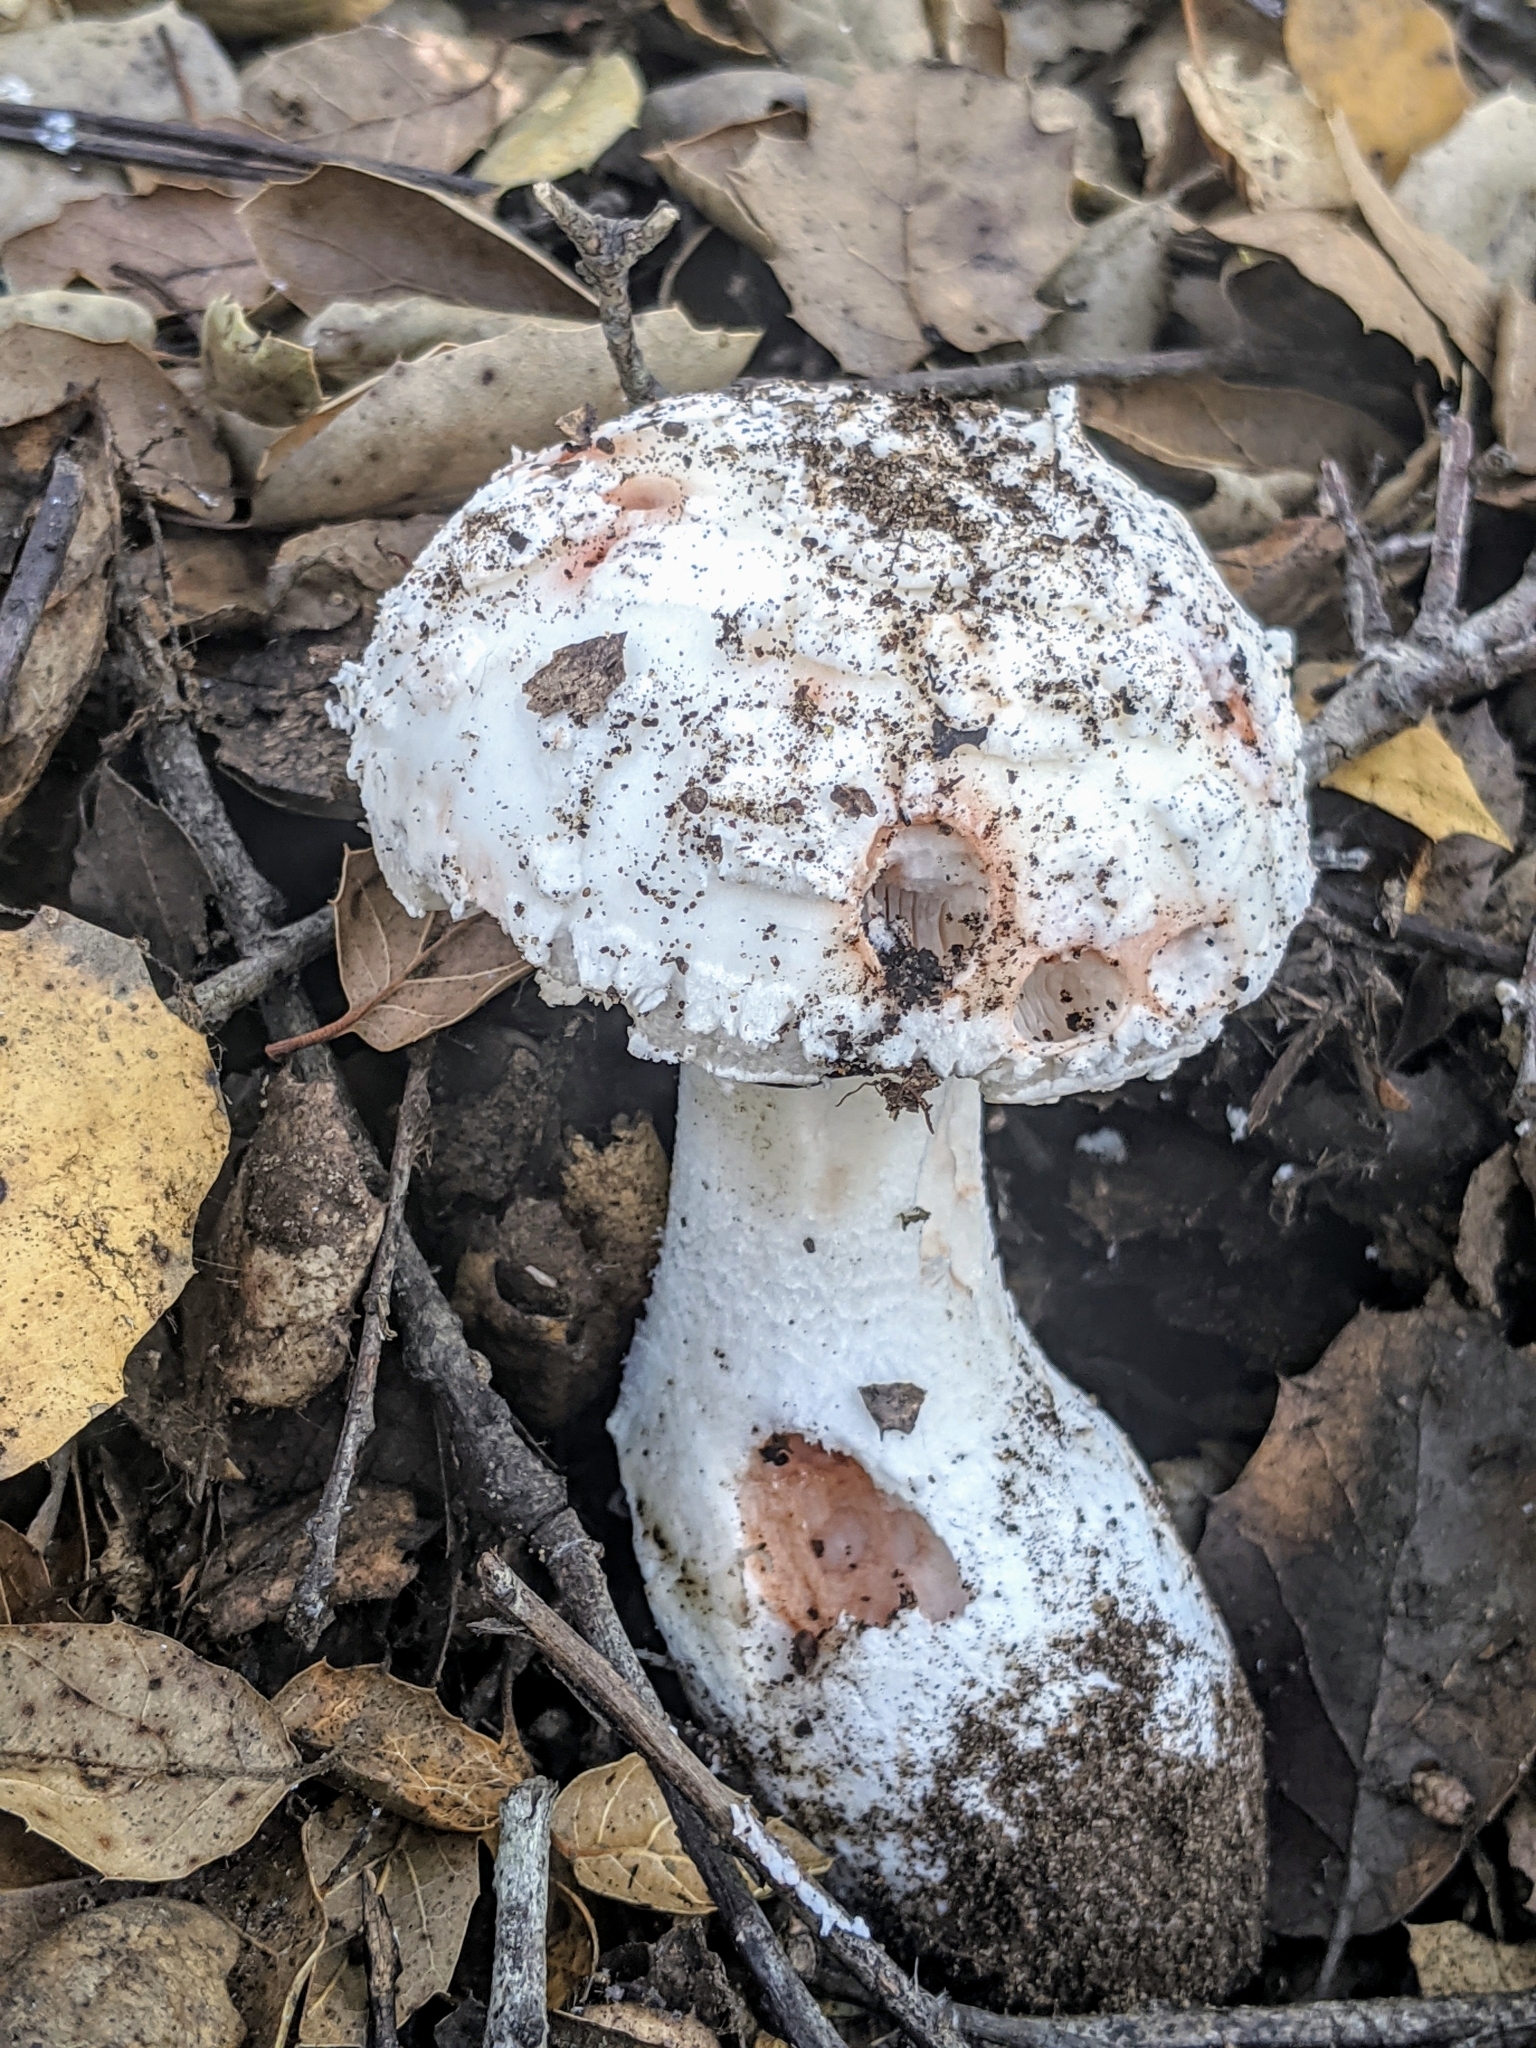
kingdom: Fungi
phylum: Basidiomycota
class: Agaricomycetes
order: Agaricales
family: Amanitaceae
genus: Amanita
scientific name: Amanita novinupta
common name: Blushing bride
